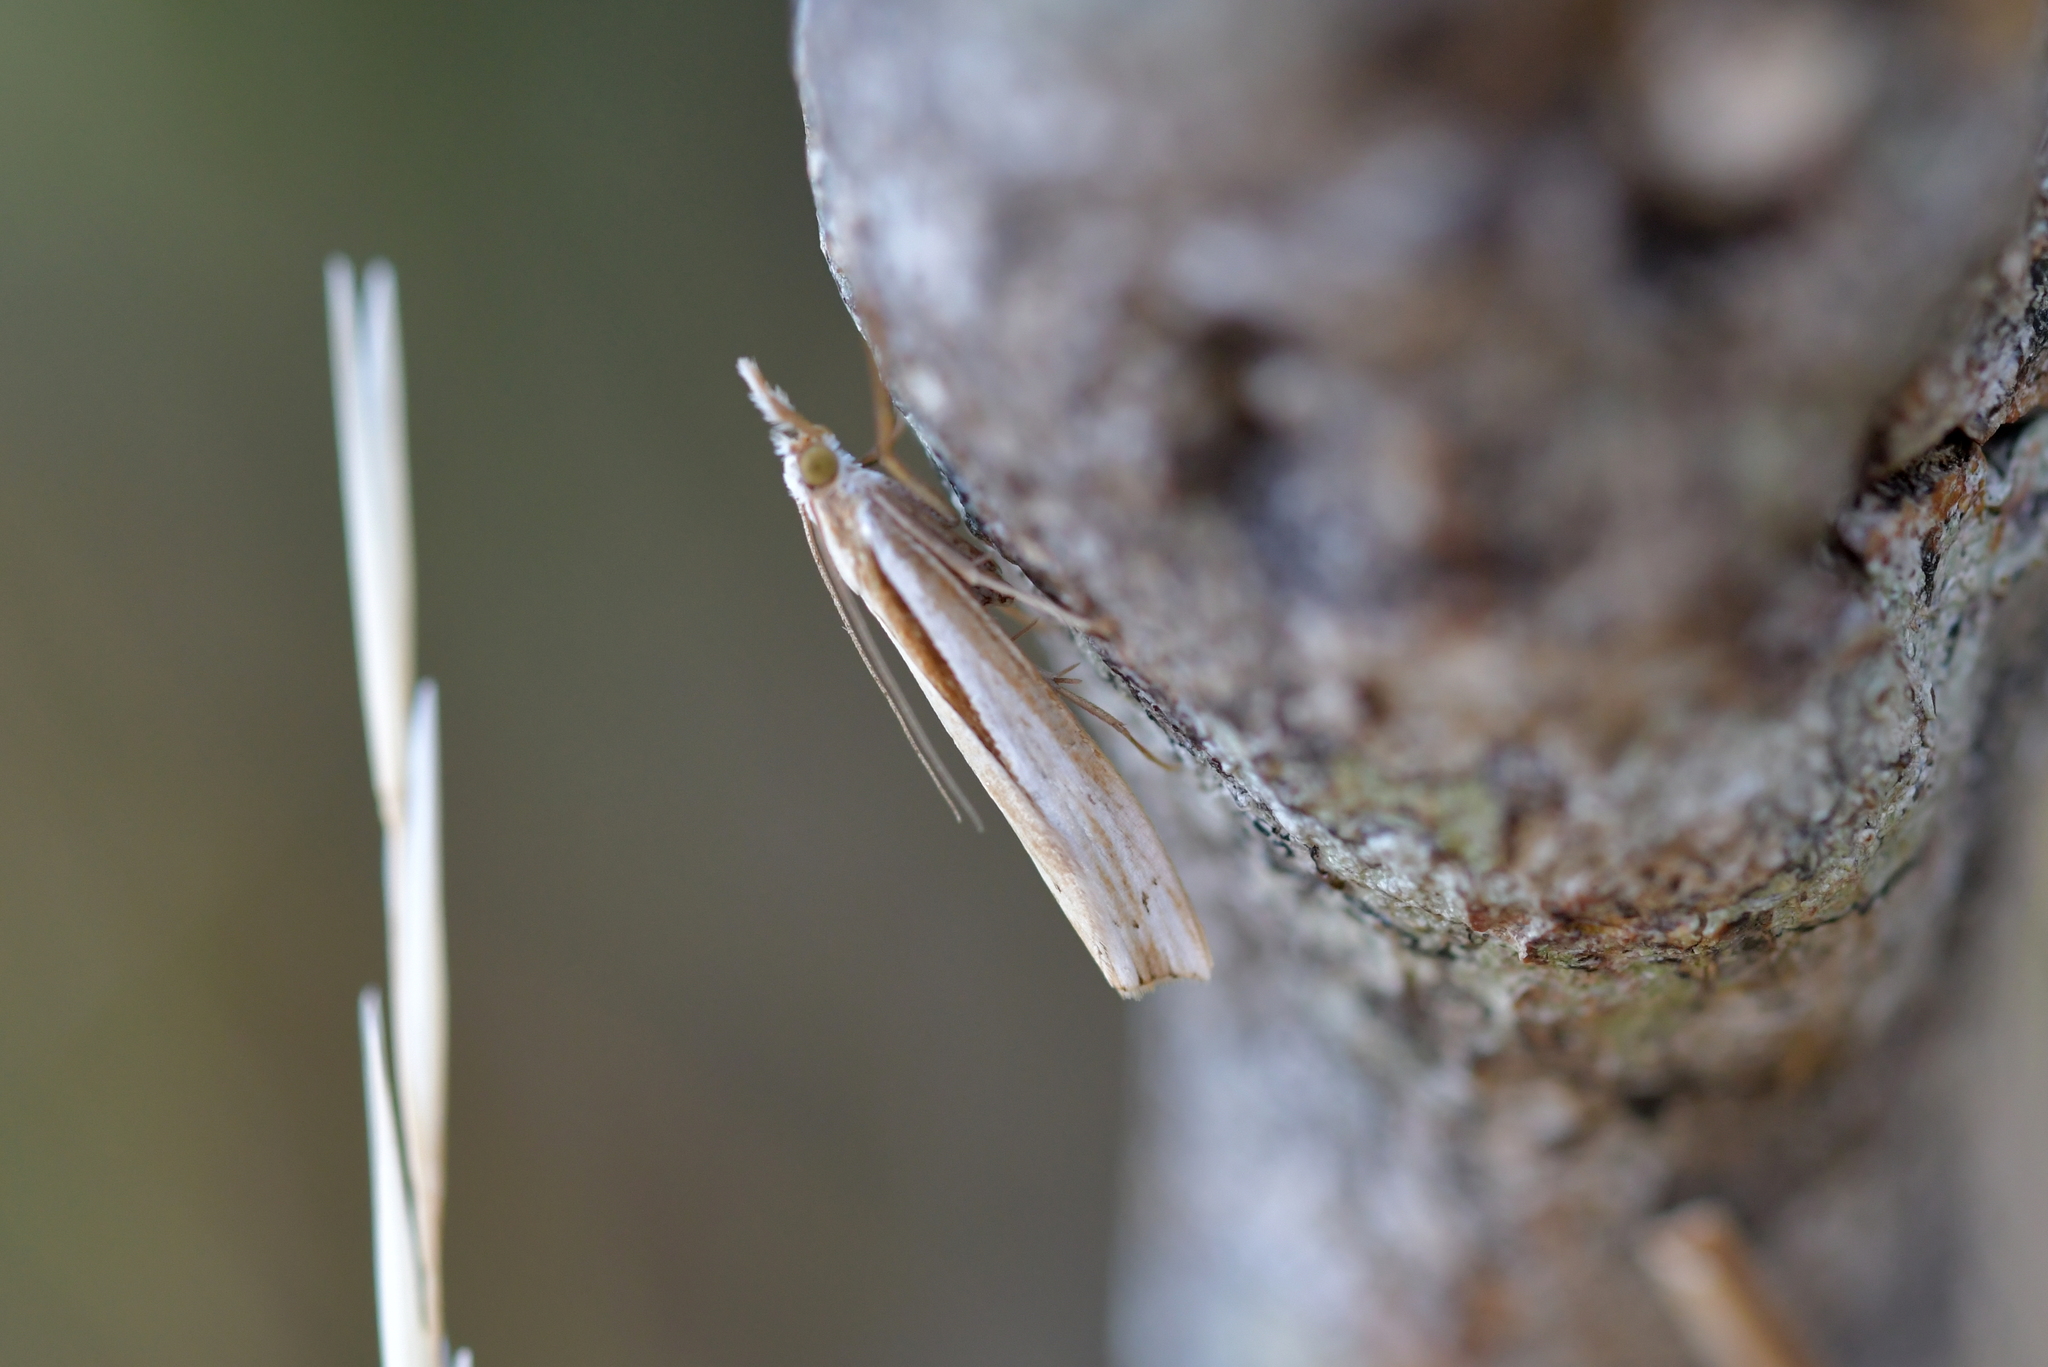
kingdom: Animalia
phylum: Arthropoda
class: Insecta
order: Lepidoptera
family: Crambidae
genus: Orocrambus
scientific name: Orocrambus ramosellus
